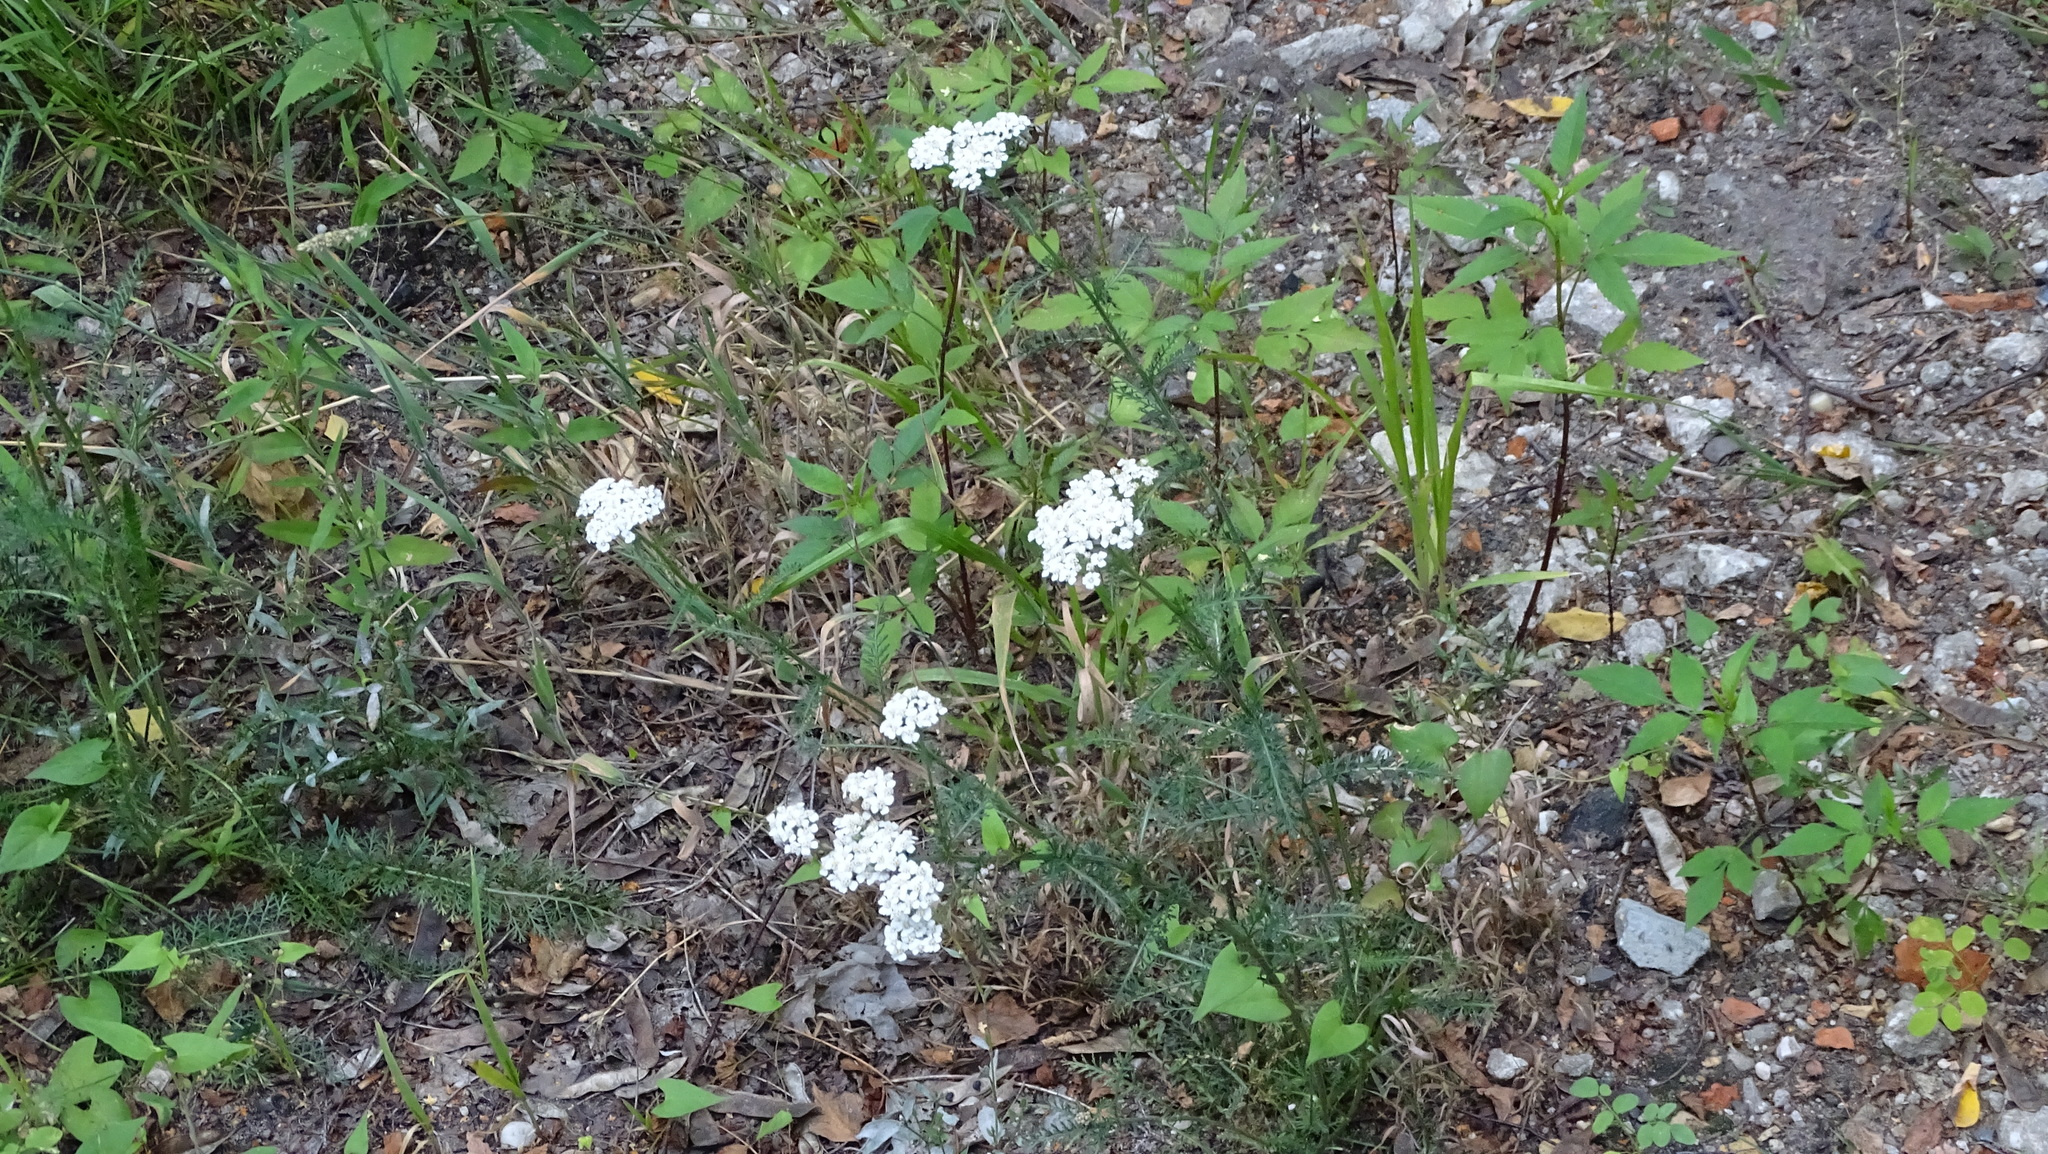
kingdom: Plantae
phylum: Tracheophyta
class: Magnoliopsida
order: Asterales
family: Asteraceae
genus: Achillea
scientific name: Achillea millefolium
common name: Yarrow
